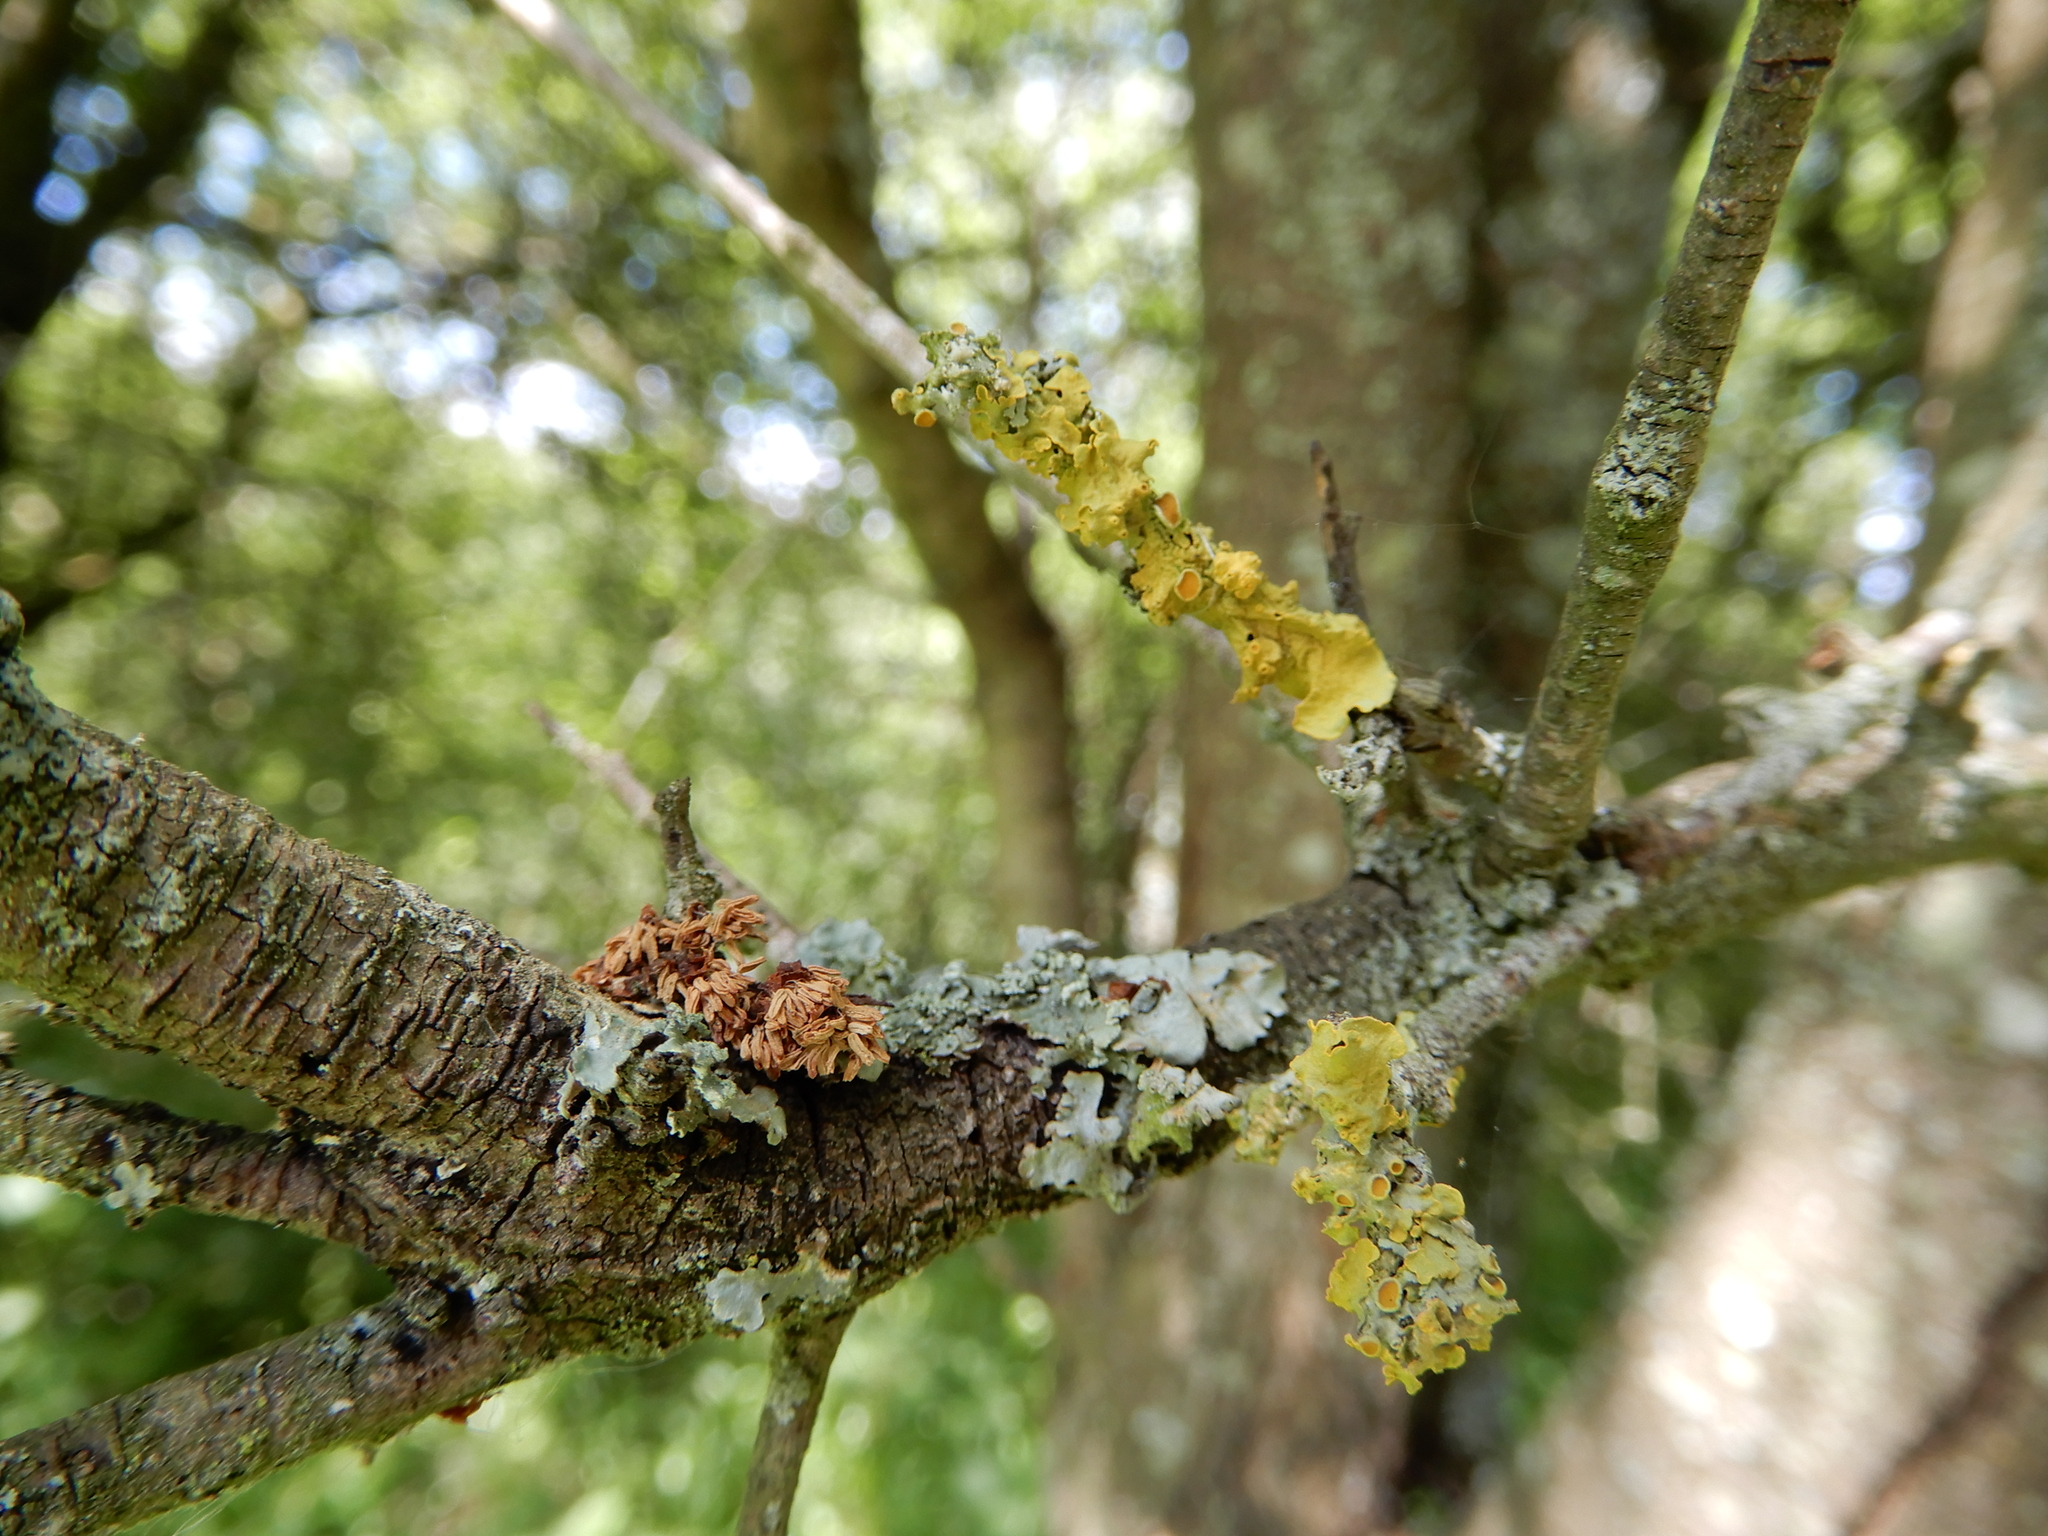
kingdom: Fungi
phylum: Ascomycota
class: Lecanoromycetes
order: Teloschistales
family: Teloschistaceae
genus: Xanthoria
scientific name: Xanthoria parietina
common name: Common orange lichen
